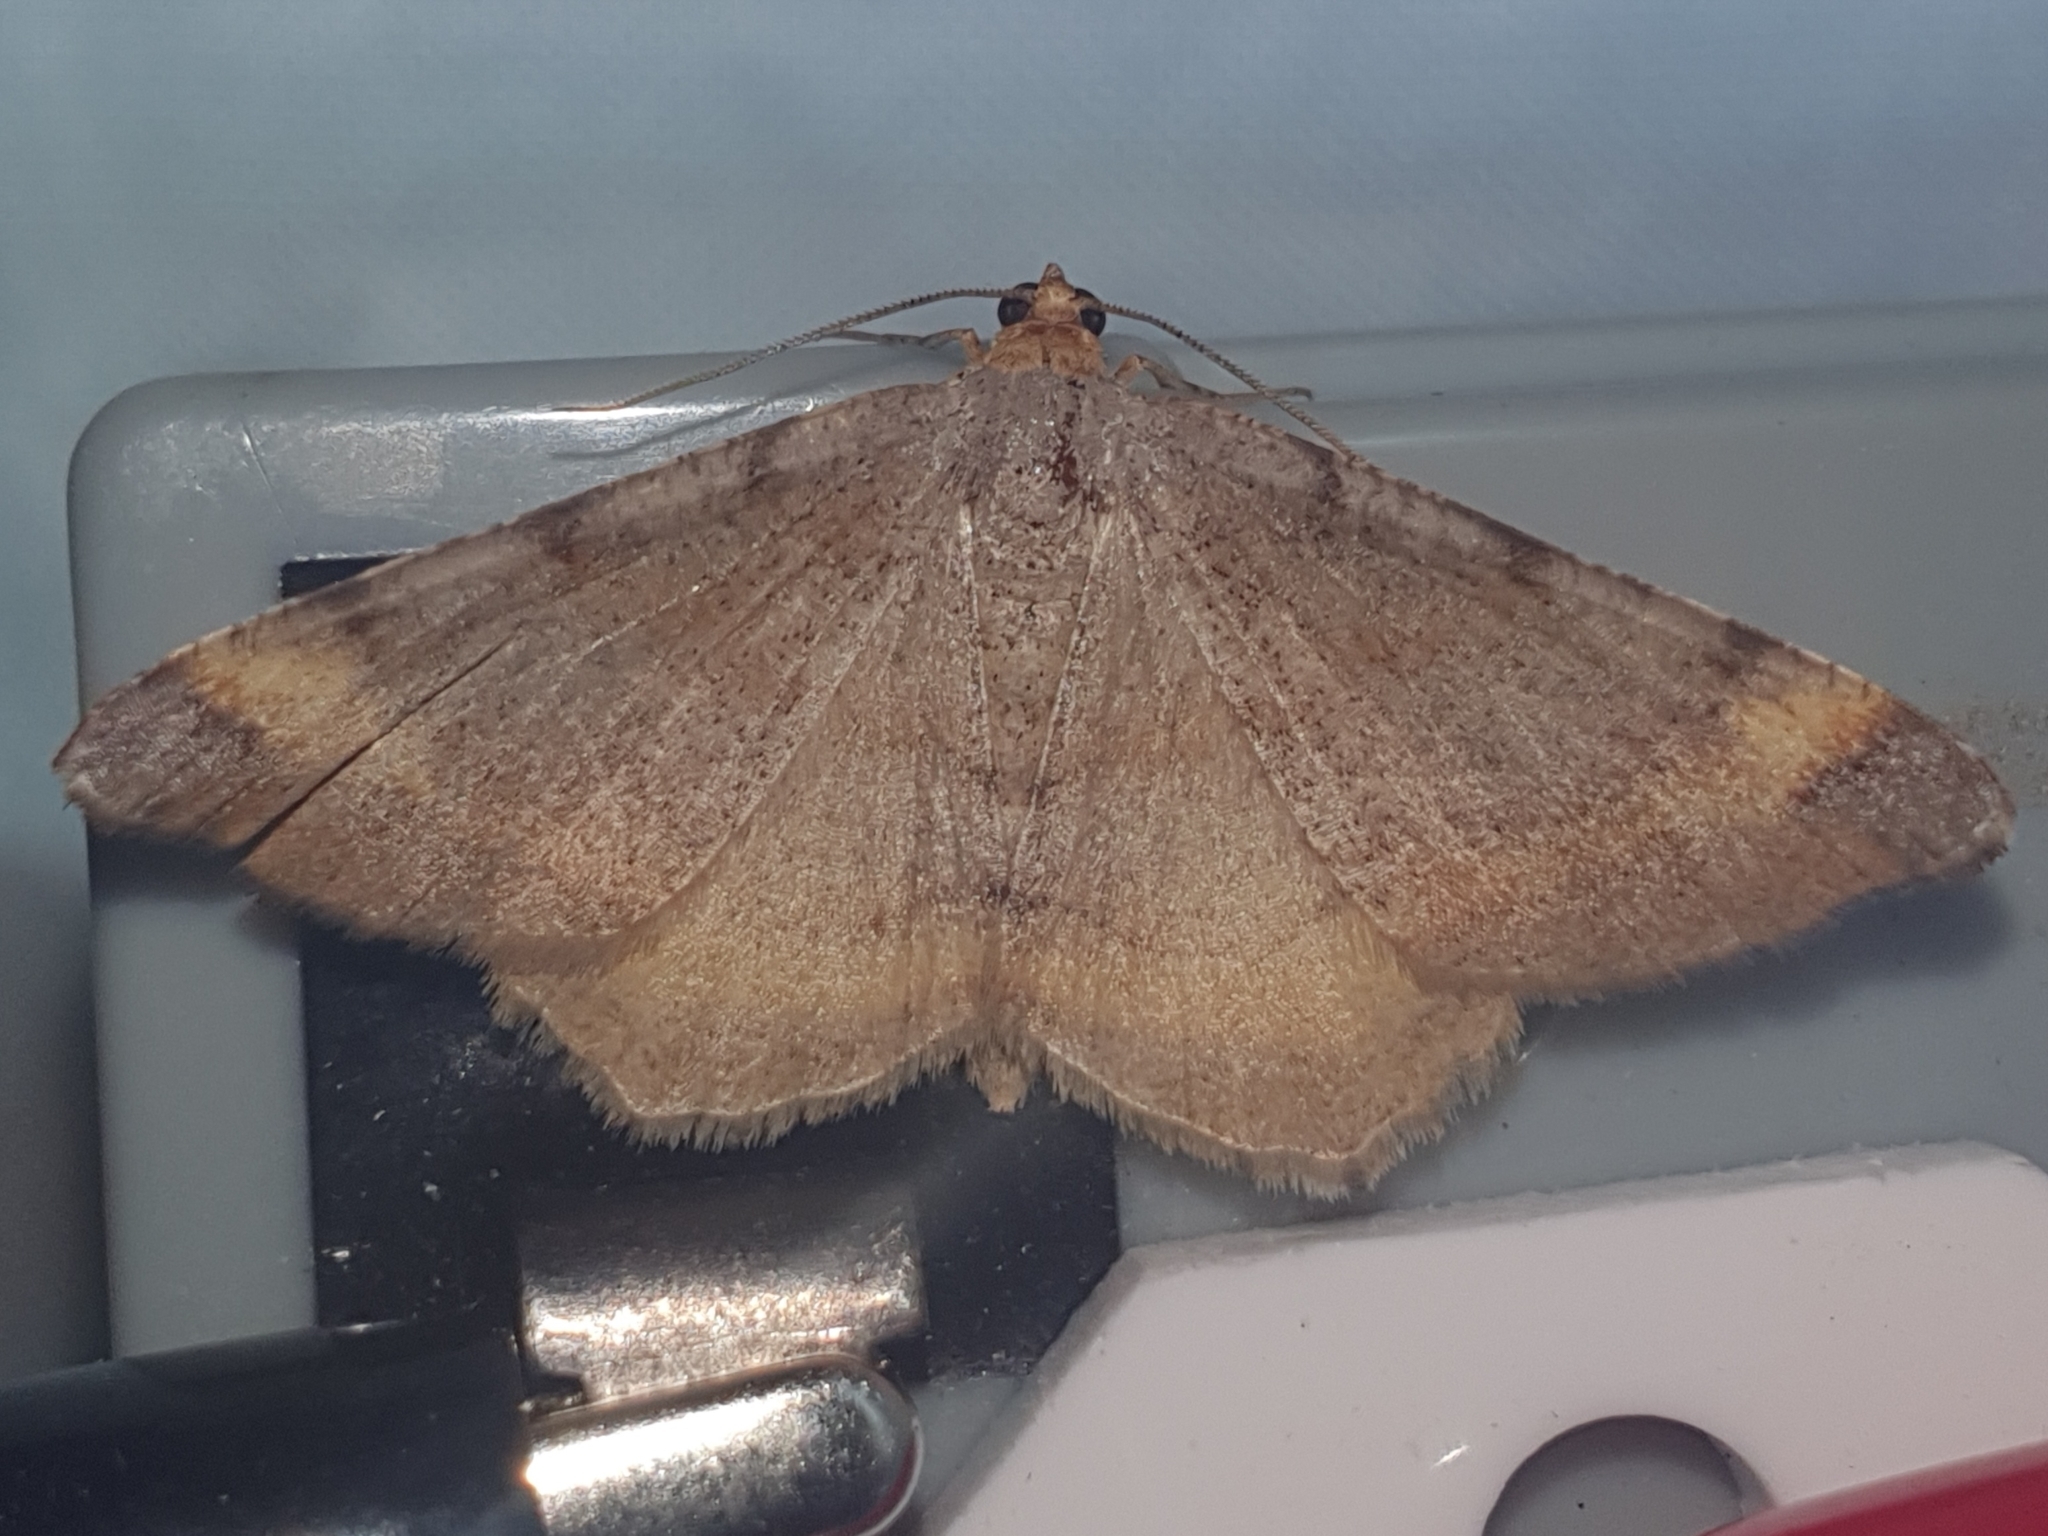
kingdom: Animalia
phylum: Arthropoda
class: Insecta
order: Lepidoptera
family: Geometridae
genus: Macaria
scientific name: Macaria liturata
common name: Tawny-barred angle
